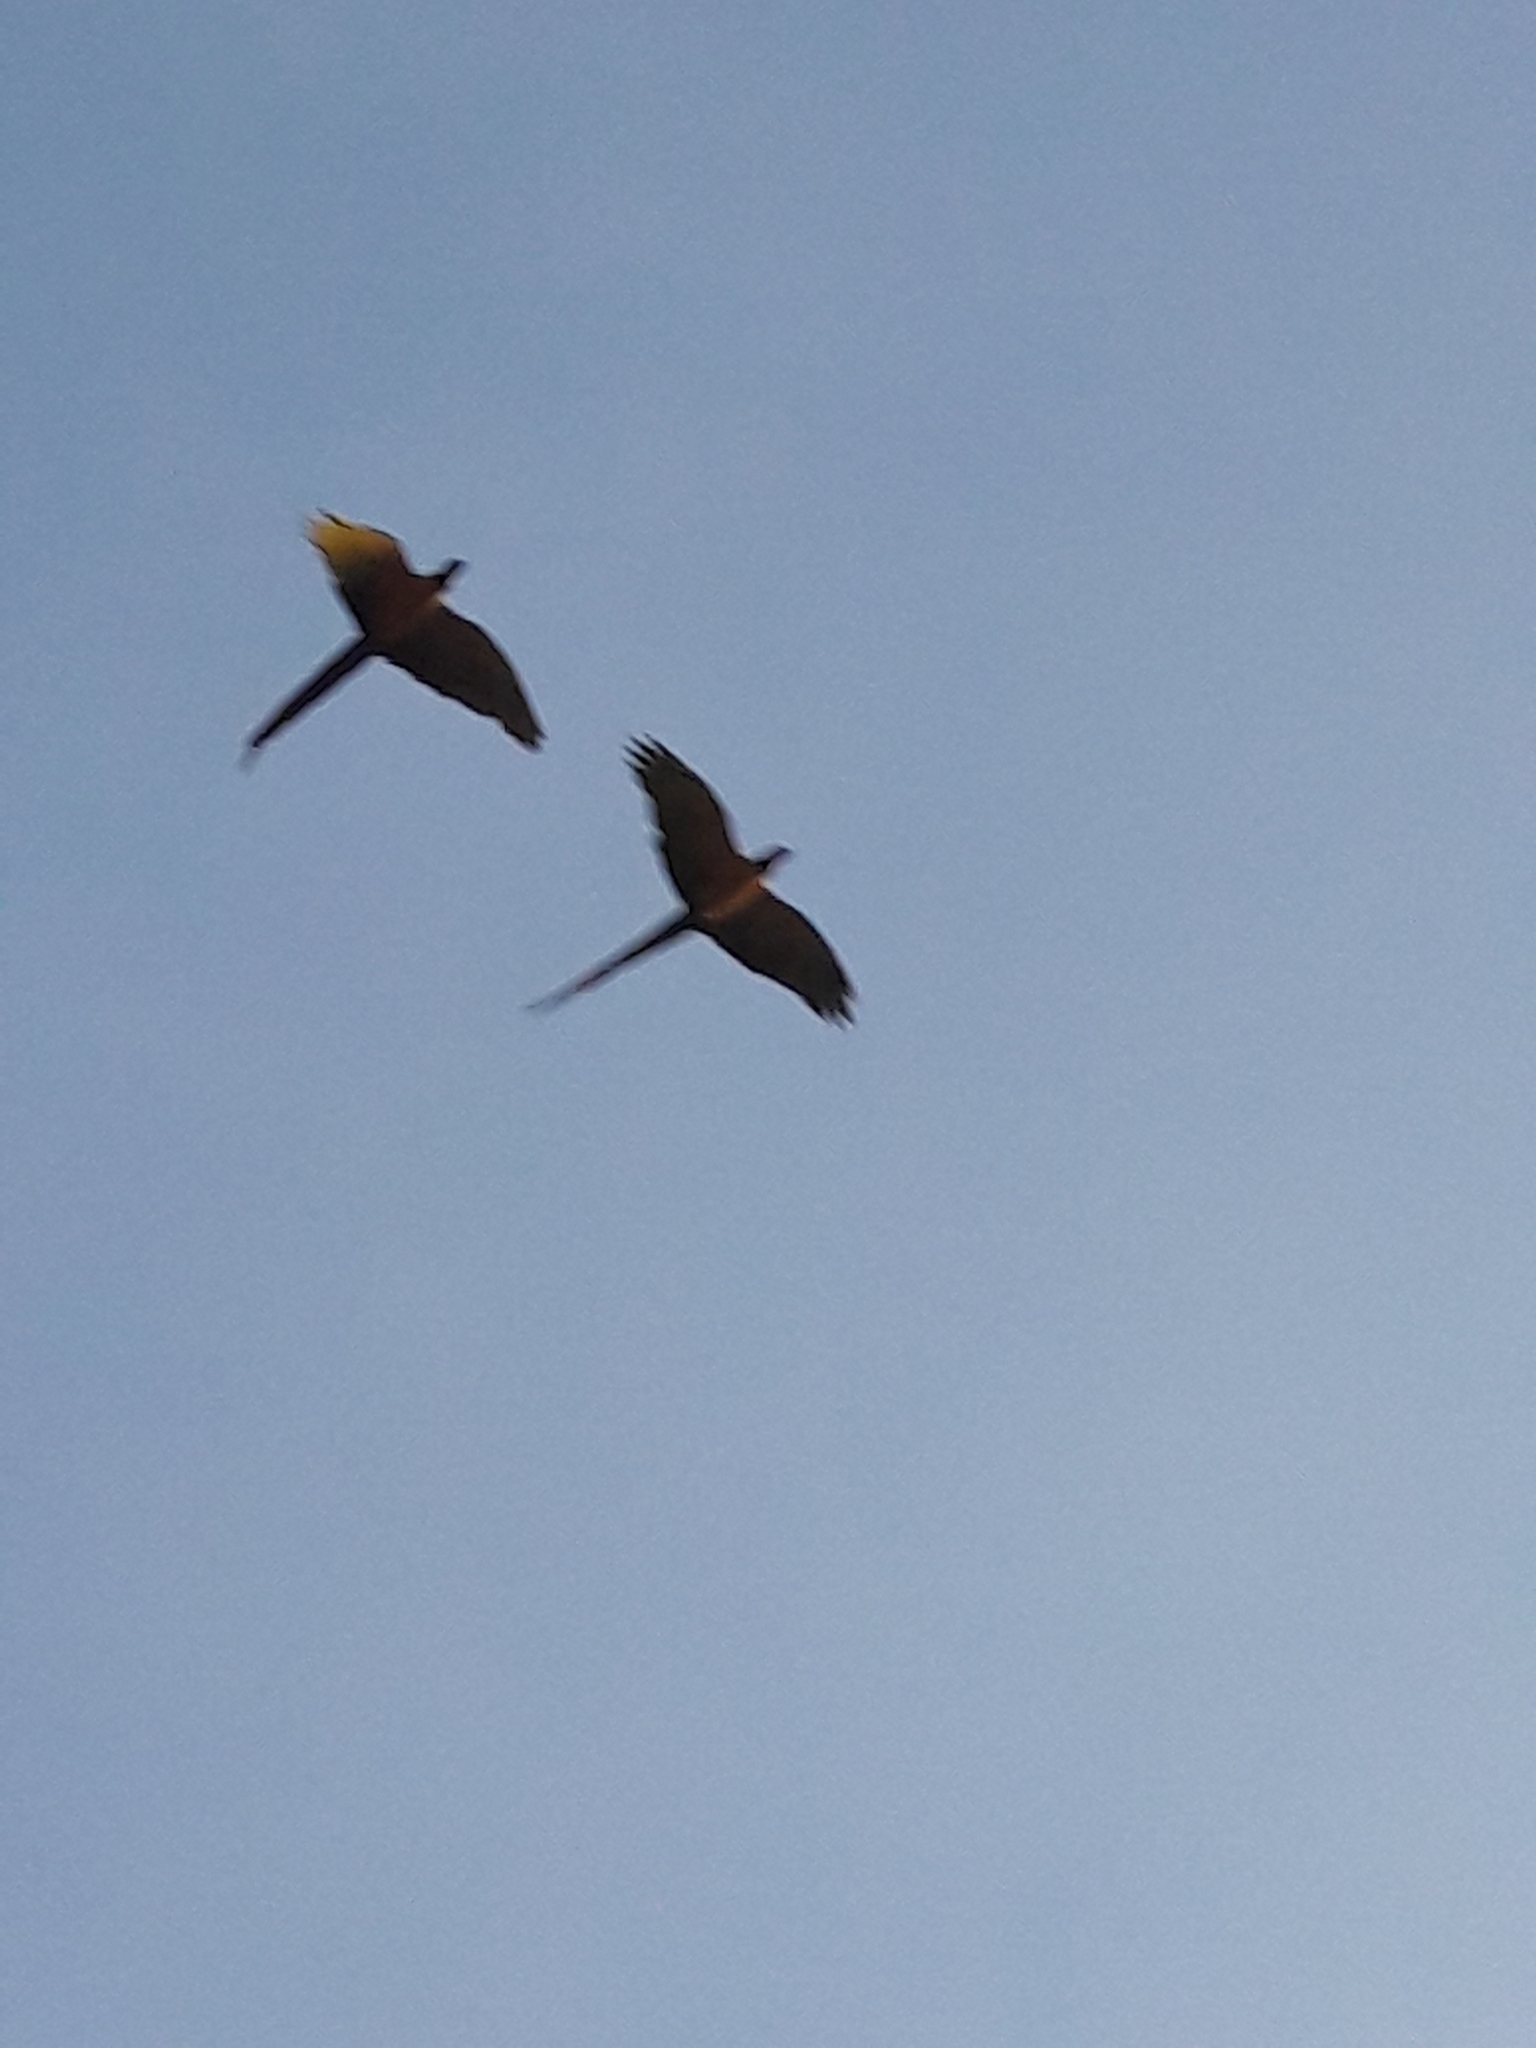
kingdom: Animalia
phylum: Chordata
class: Aves
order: Psittaciformes
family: Psittacidae
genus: Ara
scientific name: Ara ararauna
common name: Blue-and-yellow macaw
